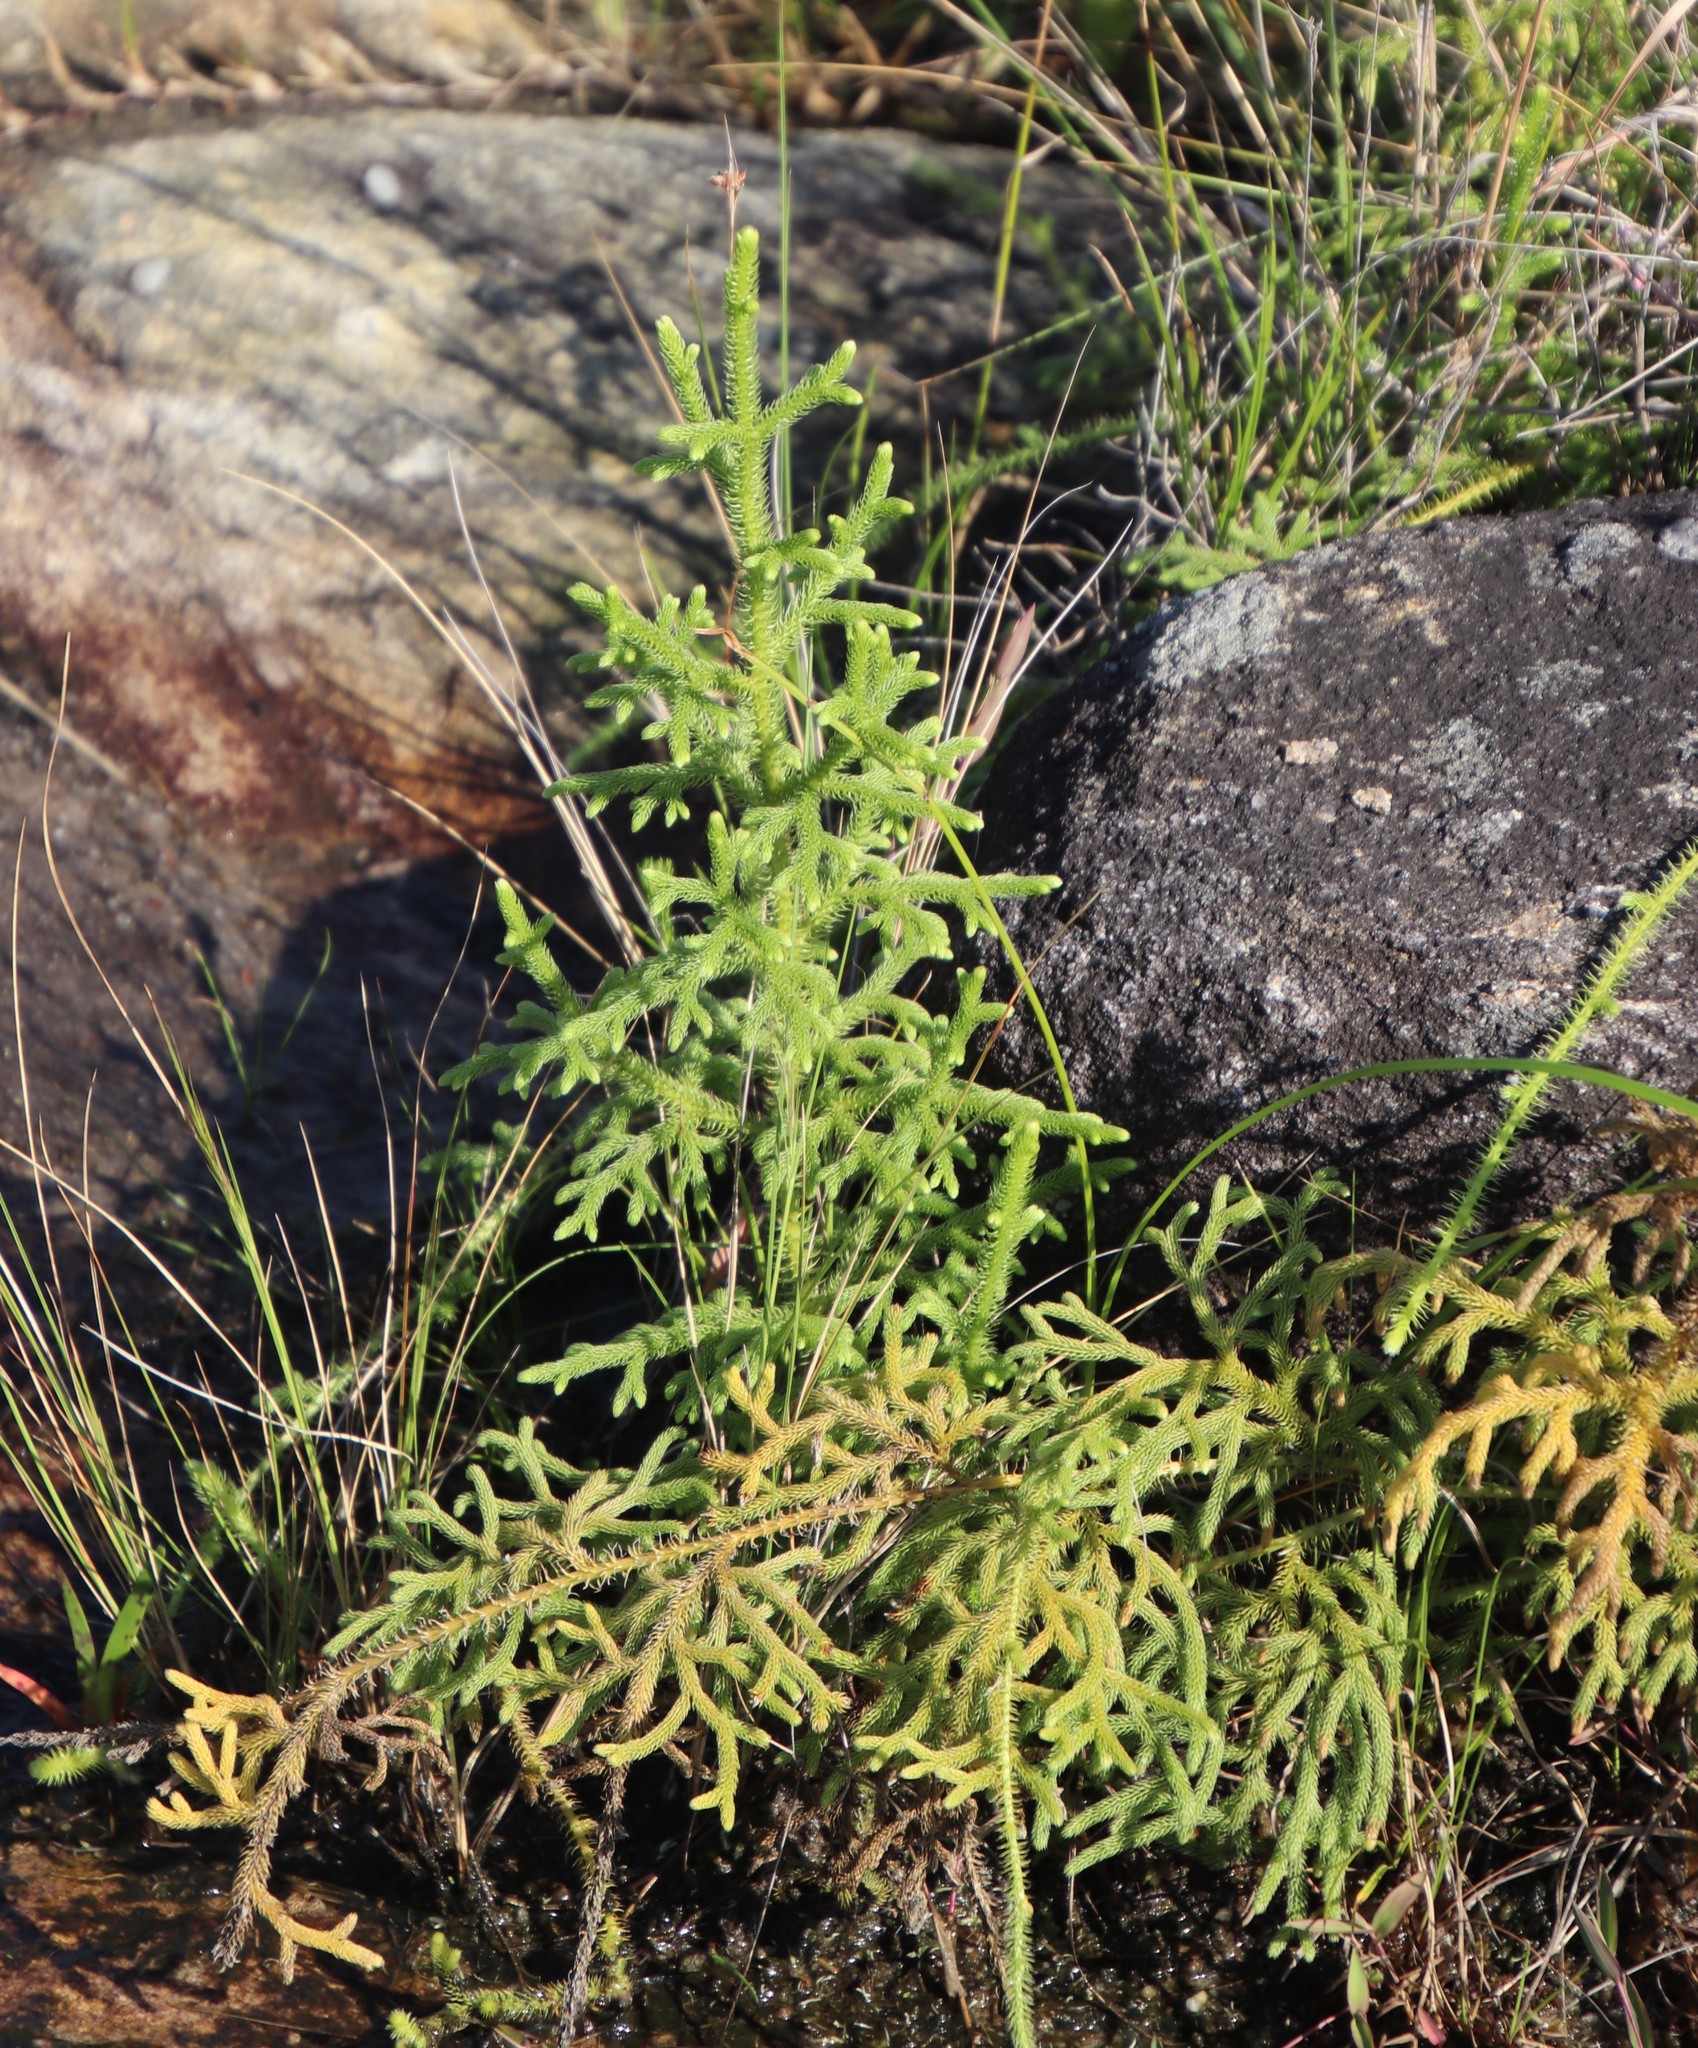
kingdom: Plantae
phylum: Tracheophyta
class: Lycopodiopsida
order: Lycopodiales
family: Lycopodiaceae
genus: Palhinhaea
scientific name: Palhinhaea cernua
